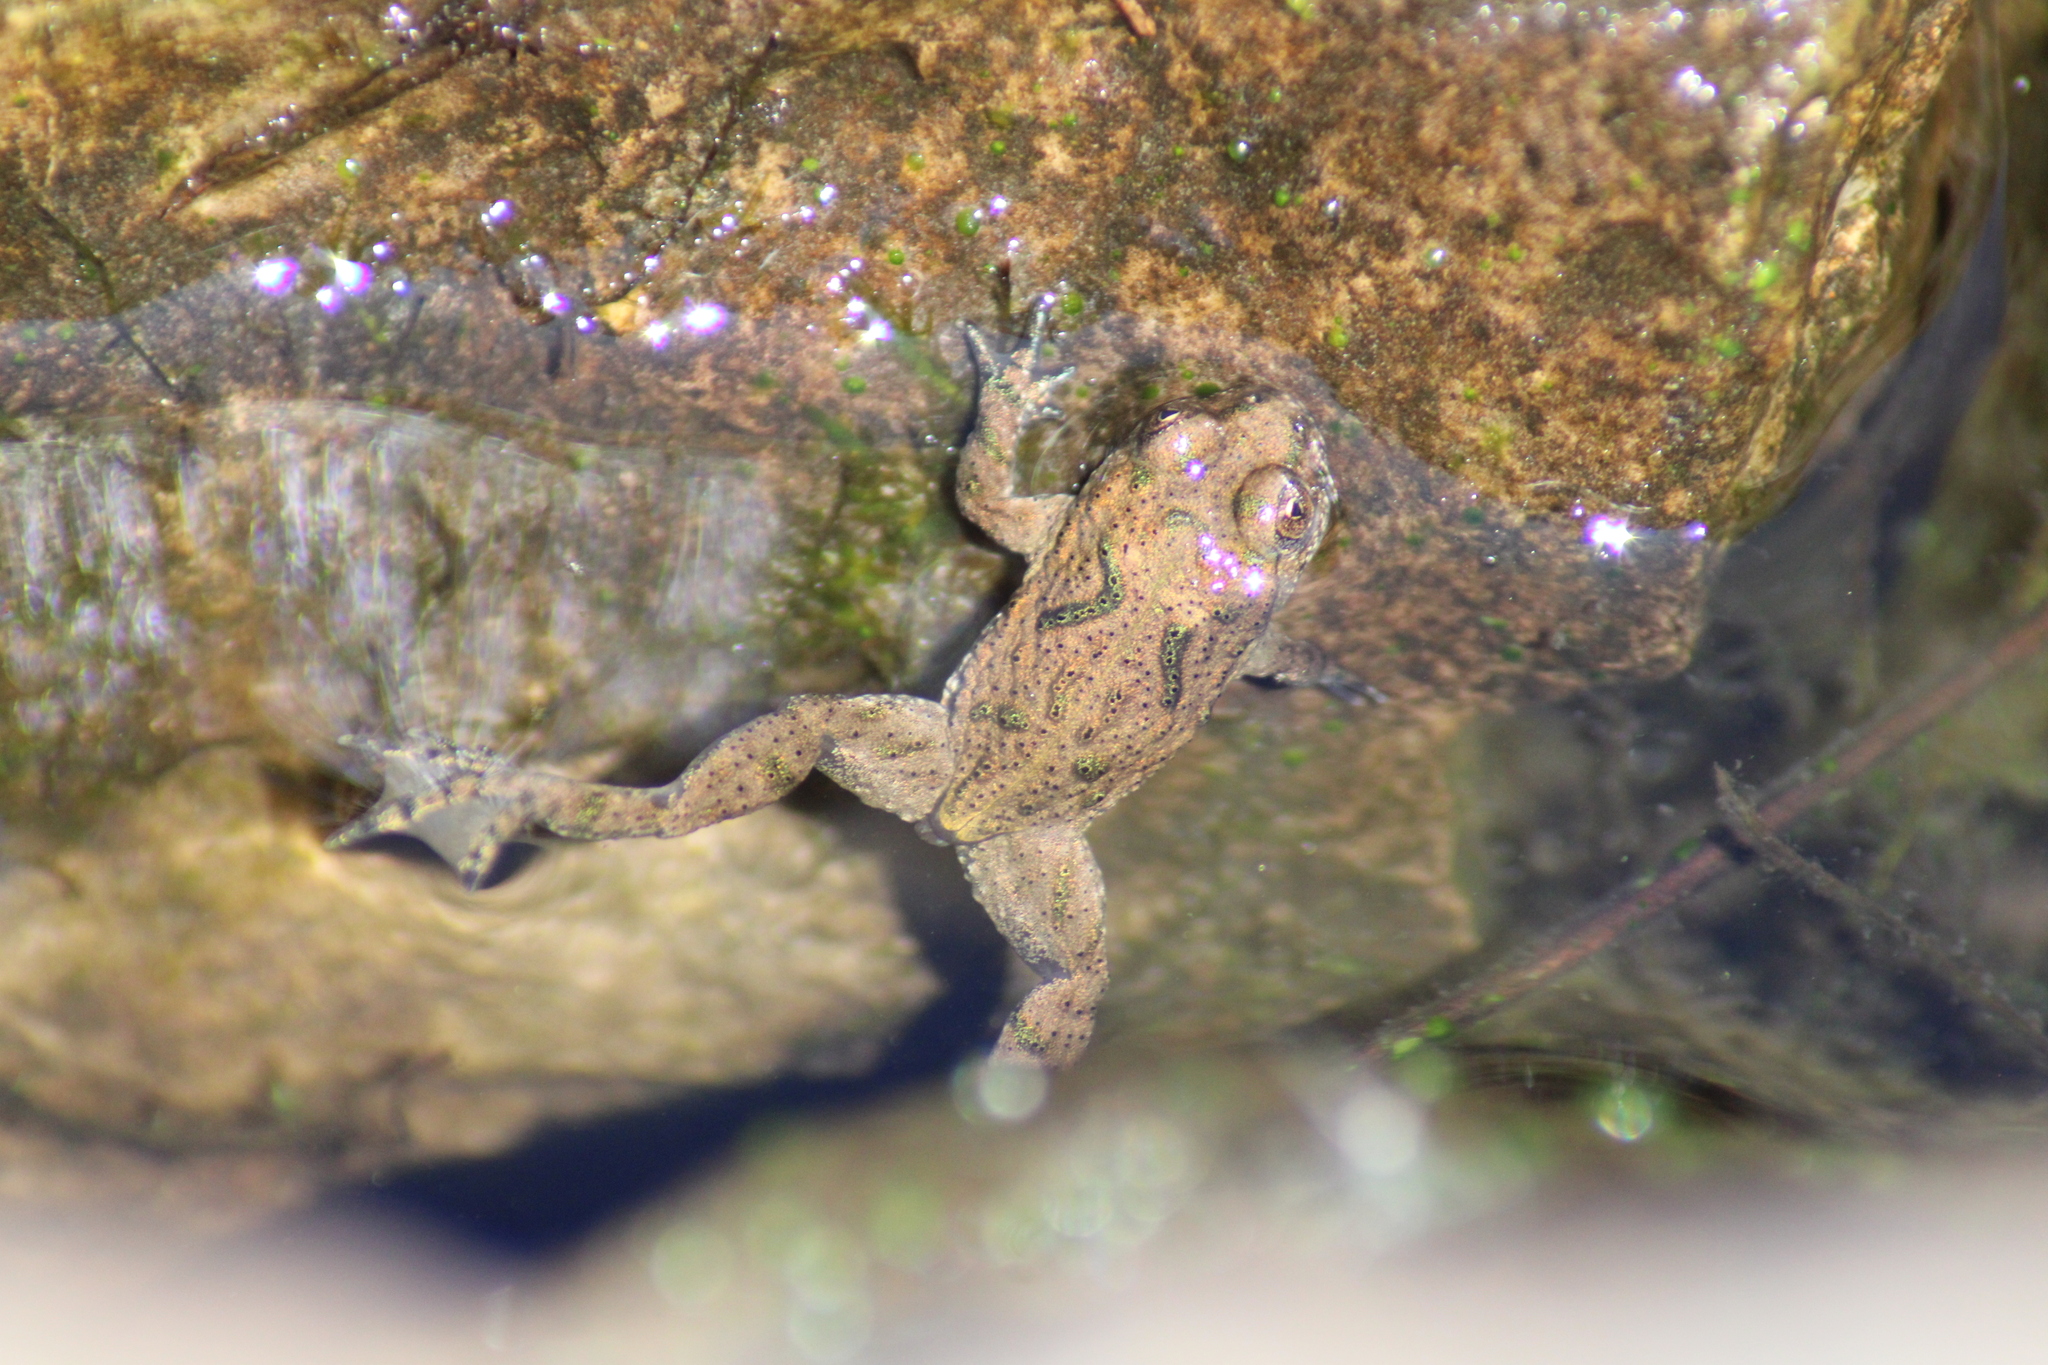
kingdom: Animalia
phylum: Chordata
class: Amphibia
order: Anura
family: Bombinatoridae
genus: Bombina
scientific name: Bombina bombina
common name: Fire-bellied toad
